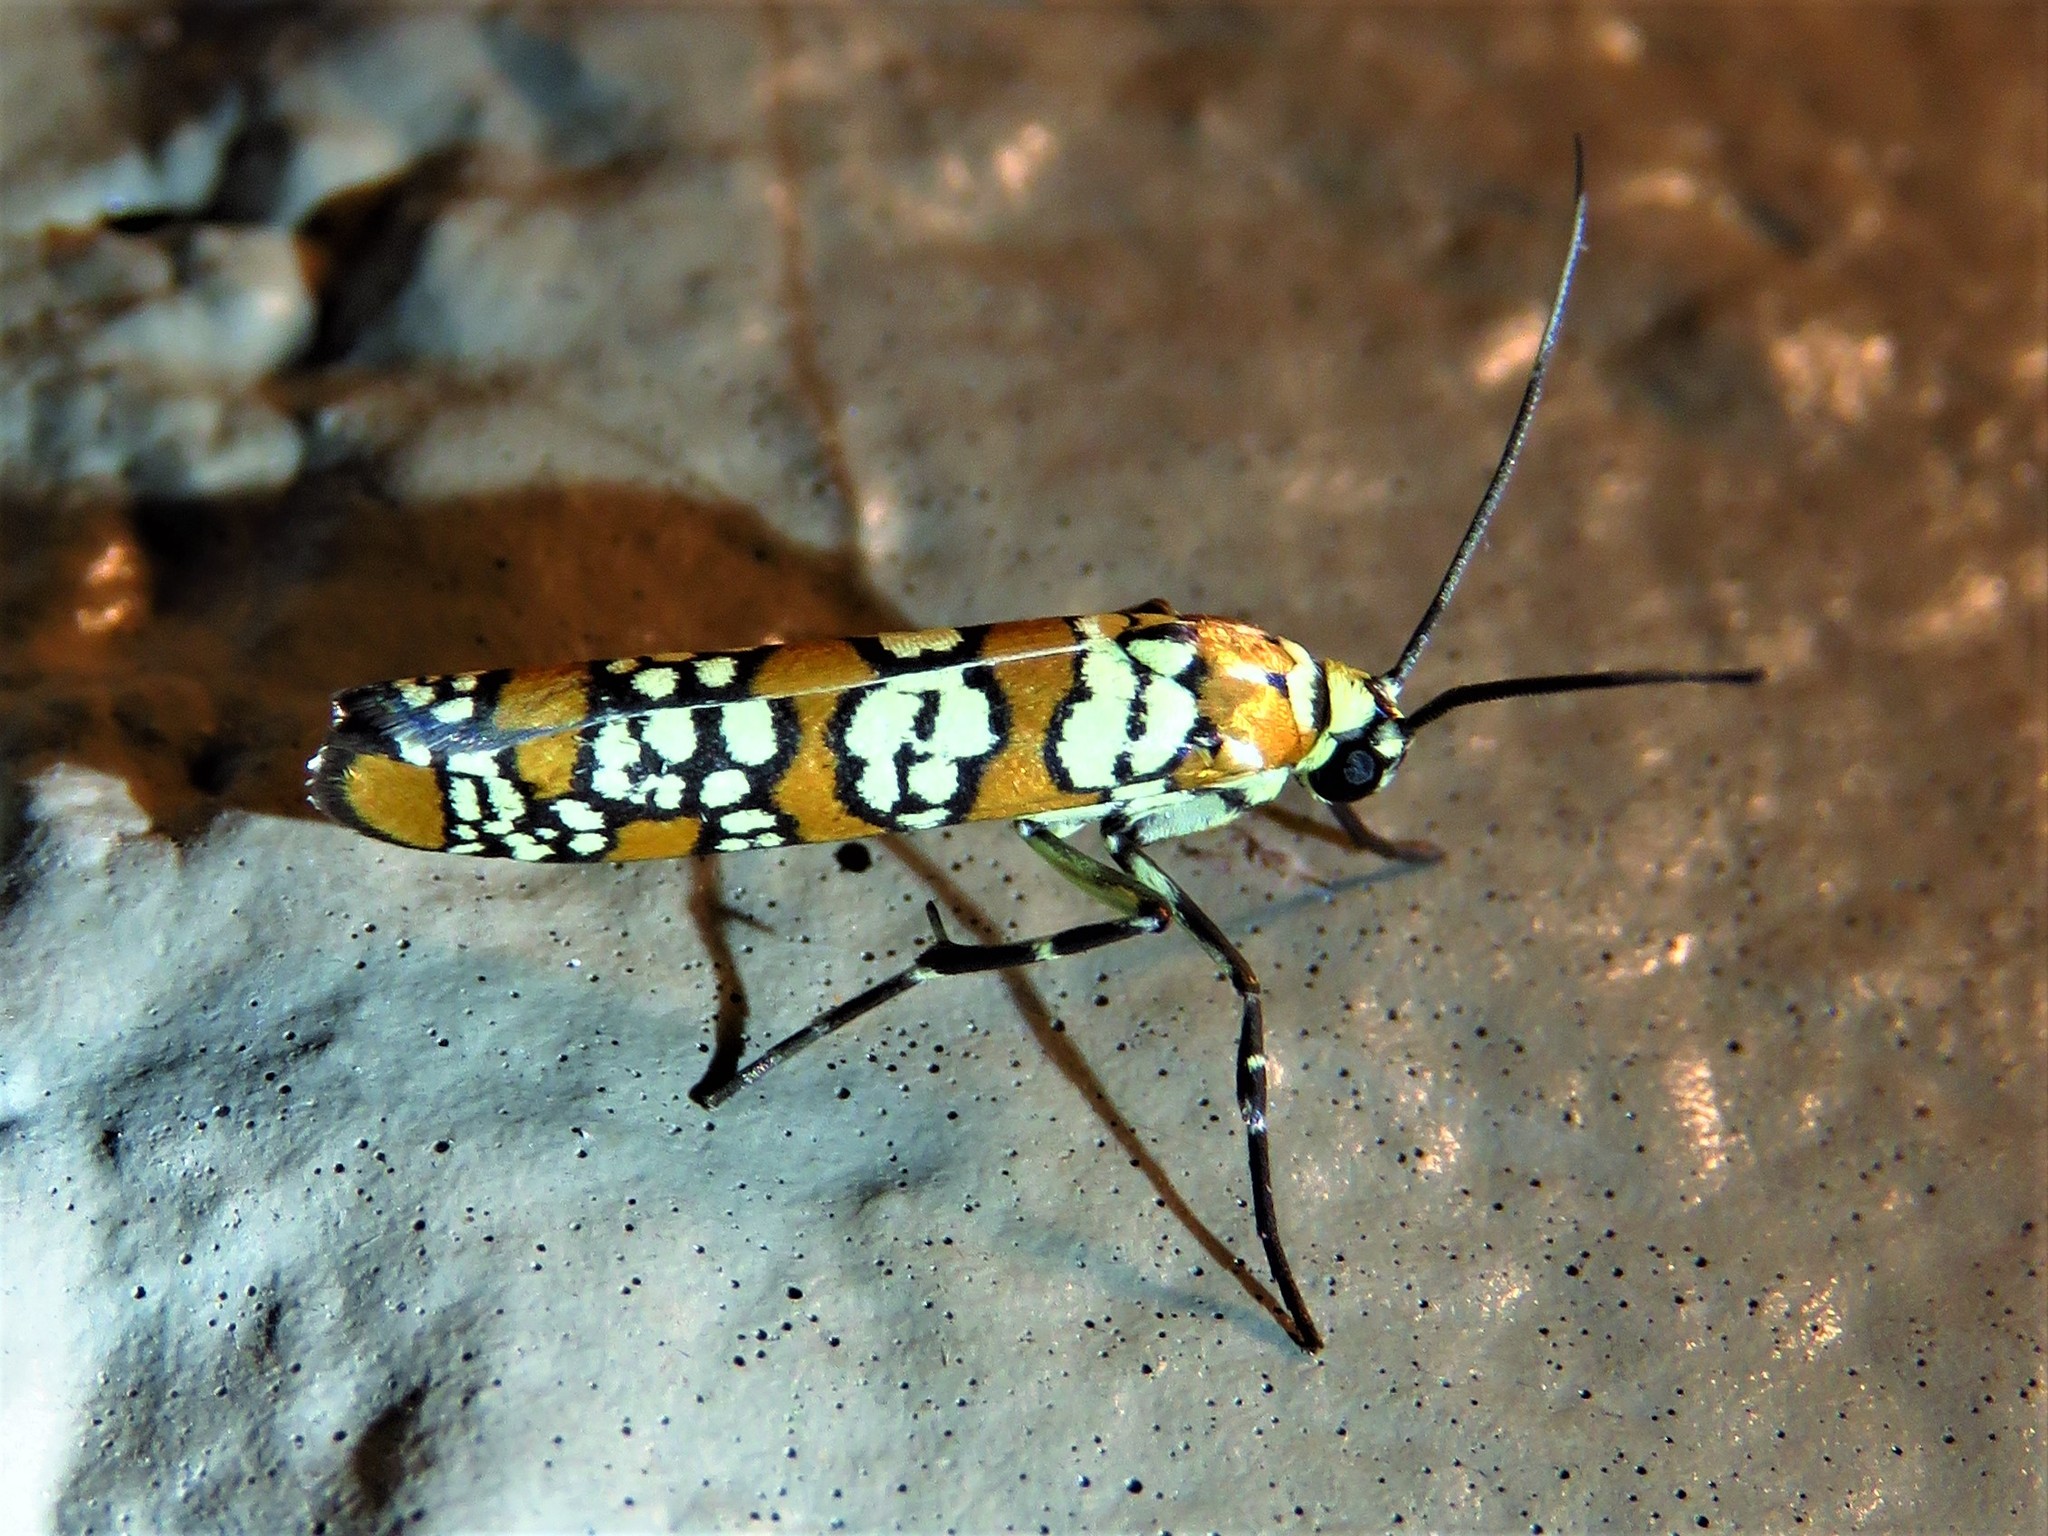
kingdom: Animalia
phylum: Arthropoda
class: Insecta
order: Lepidoptera
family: Attevidae
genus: Atteva
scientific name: Atteva punctella
